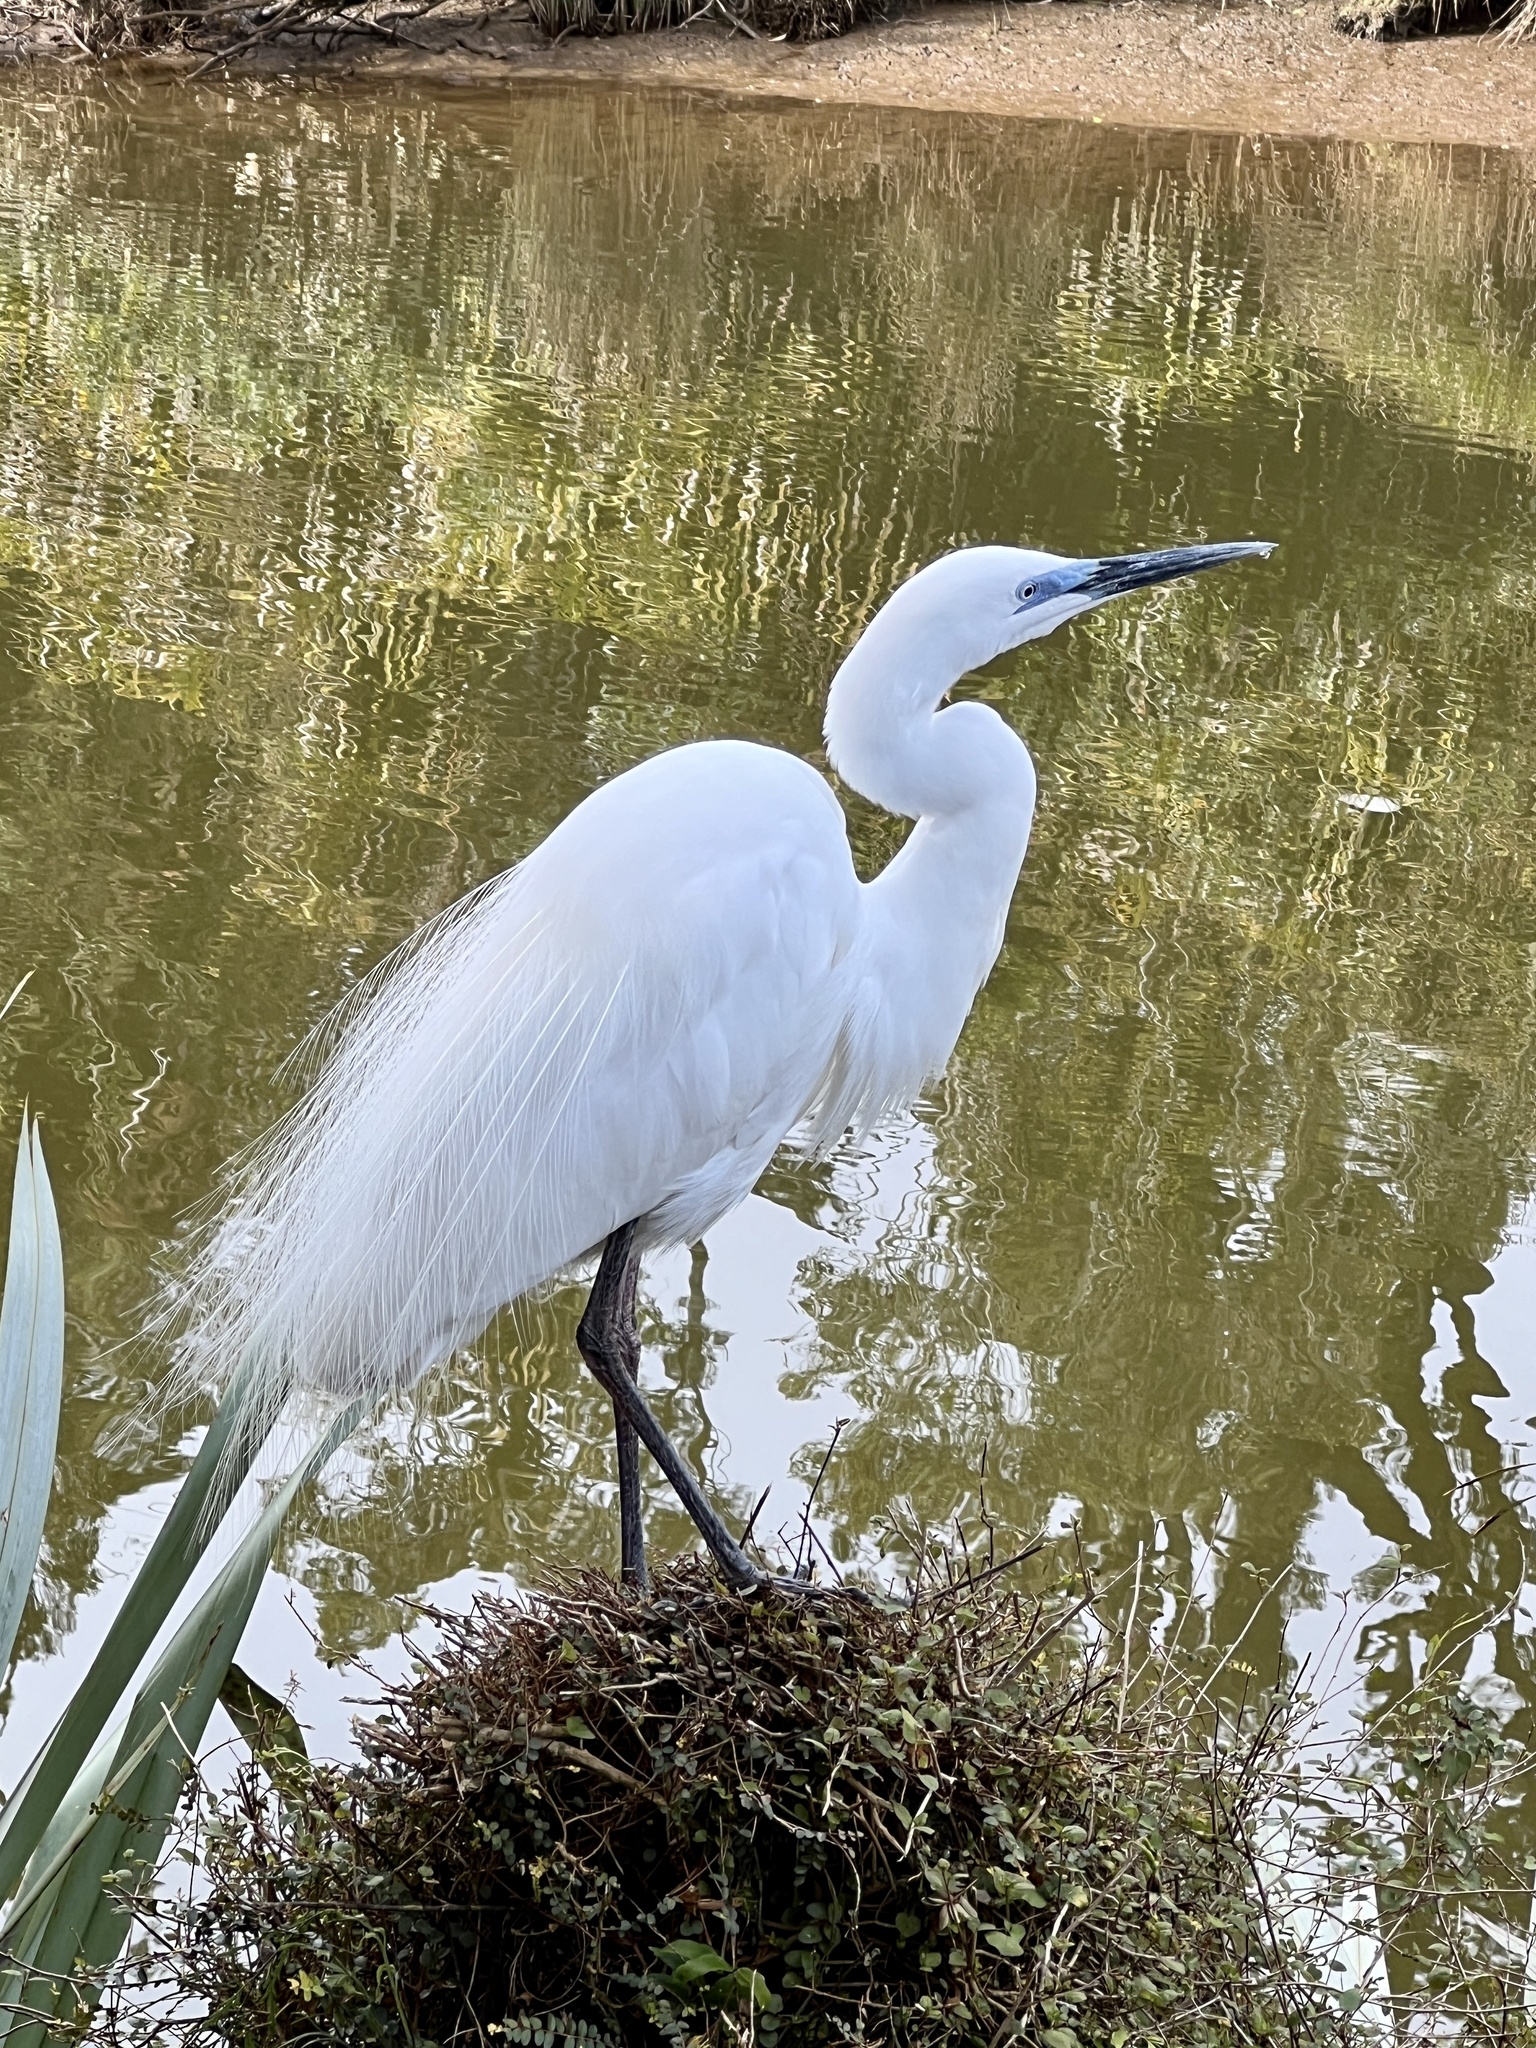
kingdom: Animalia
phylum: Chordata
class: Aves
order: Pelecaniformes
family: Ardeidae
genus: Ardea
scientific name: Ardea modesta
